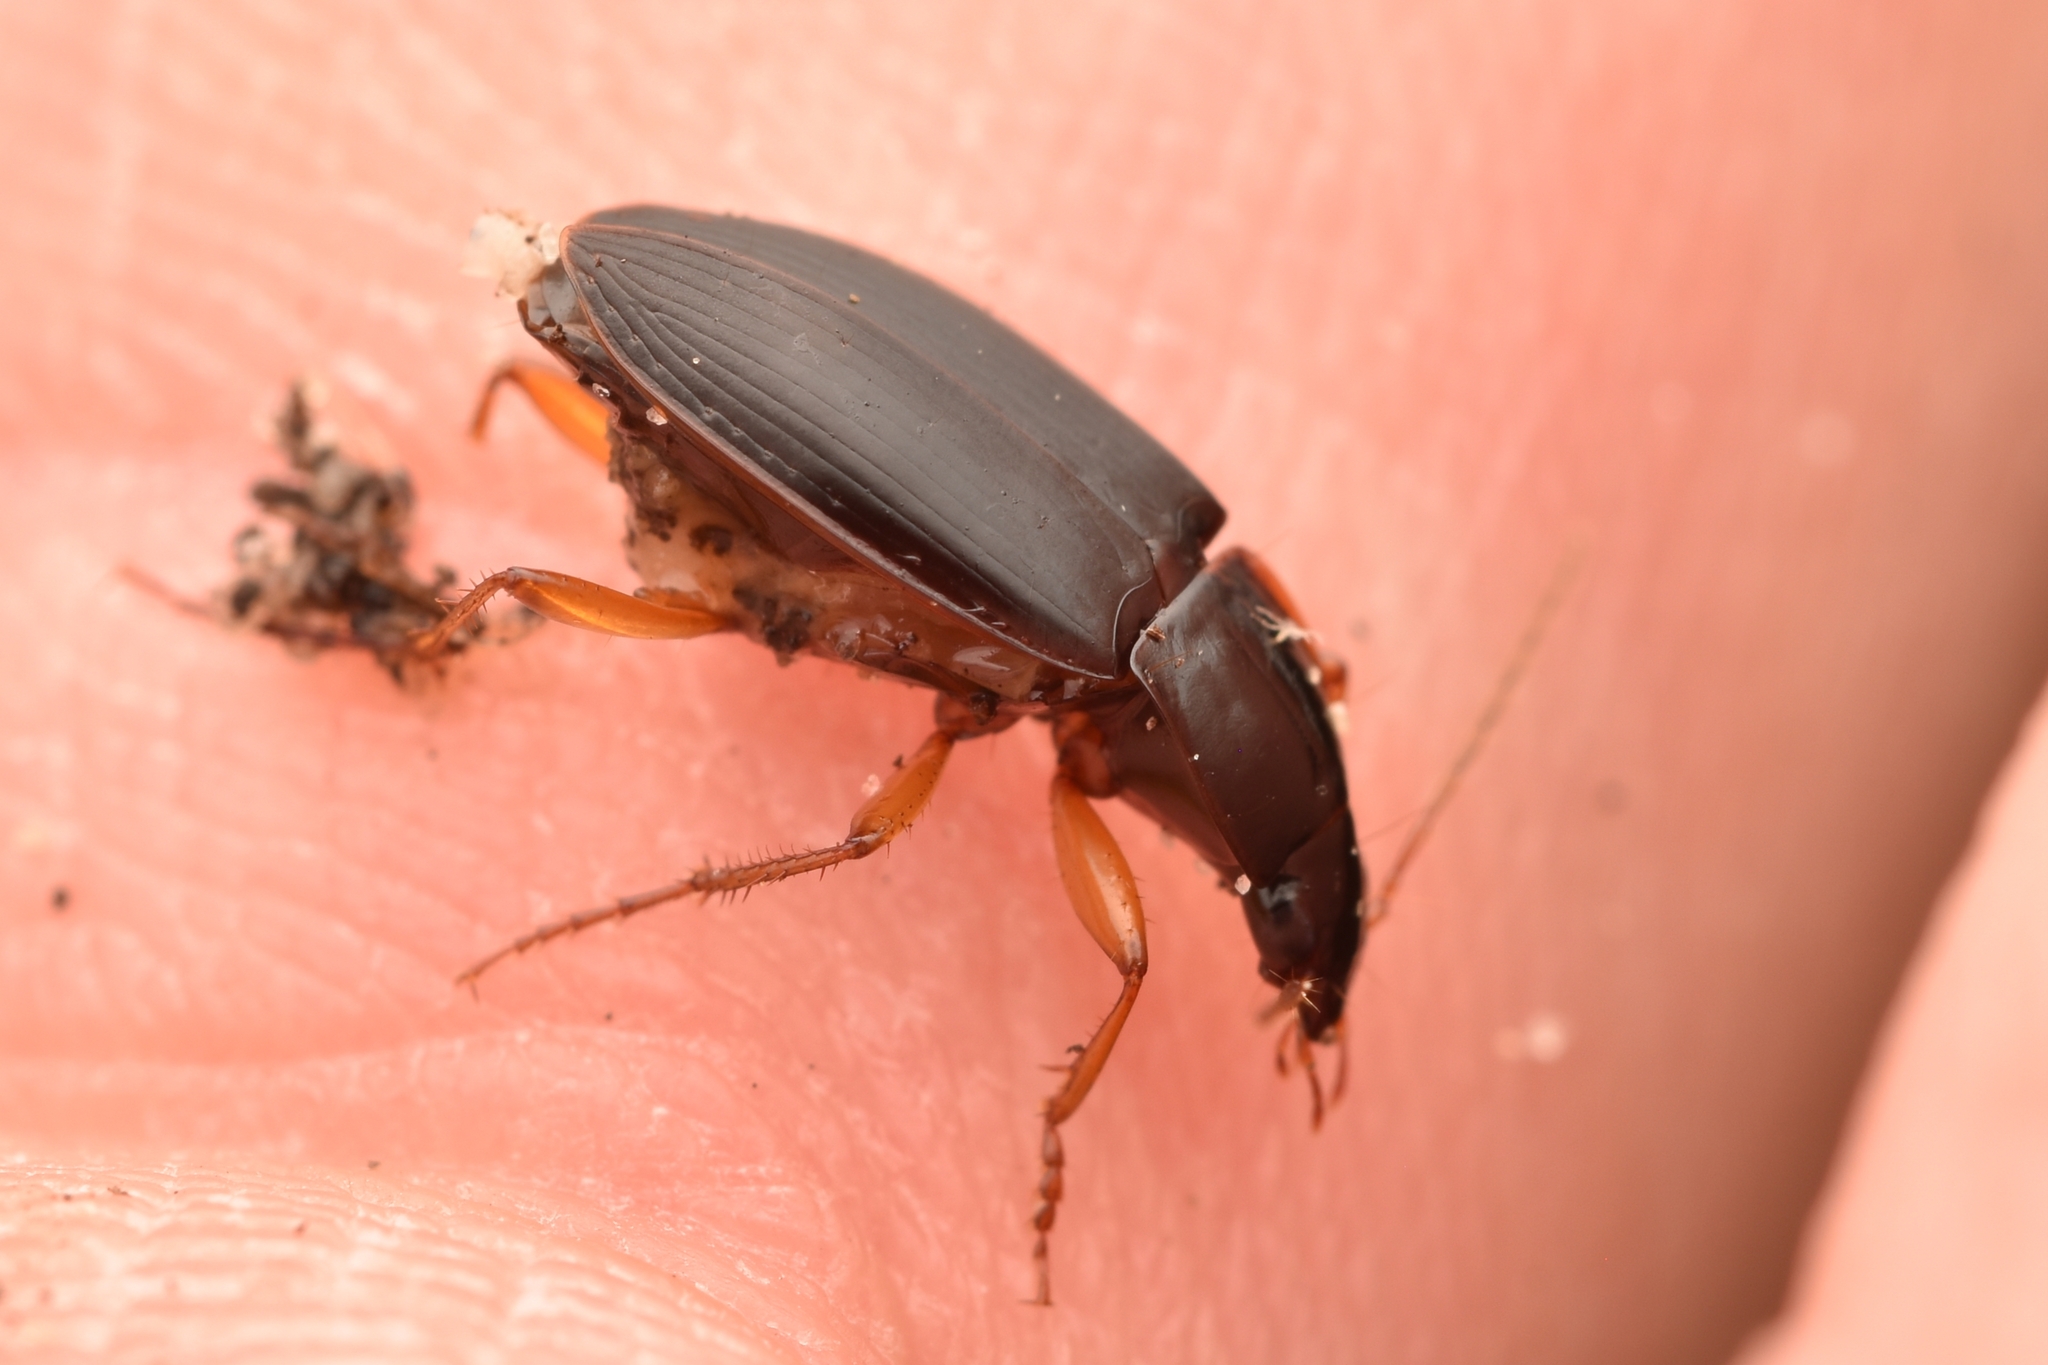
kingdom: Animalia
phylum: Arthropoda
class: Insecta
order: Coleoptera
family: Carabidae
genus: Calathus
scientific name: Calathus opaculus
